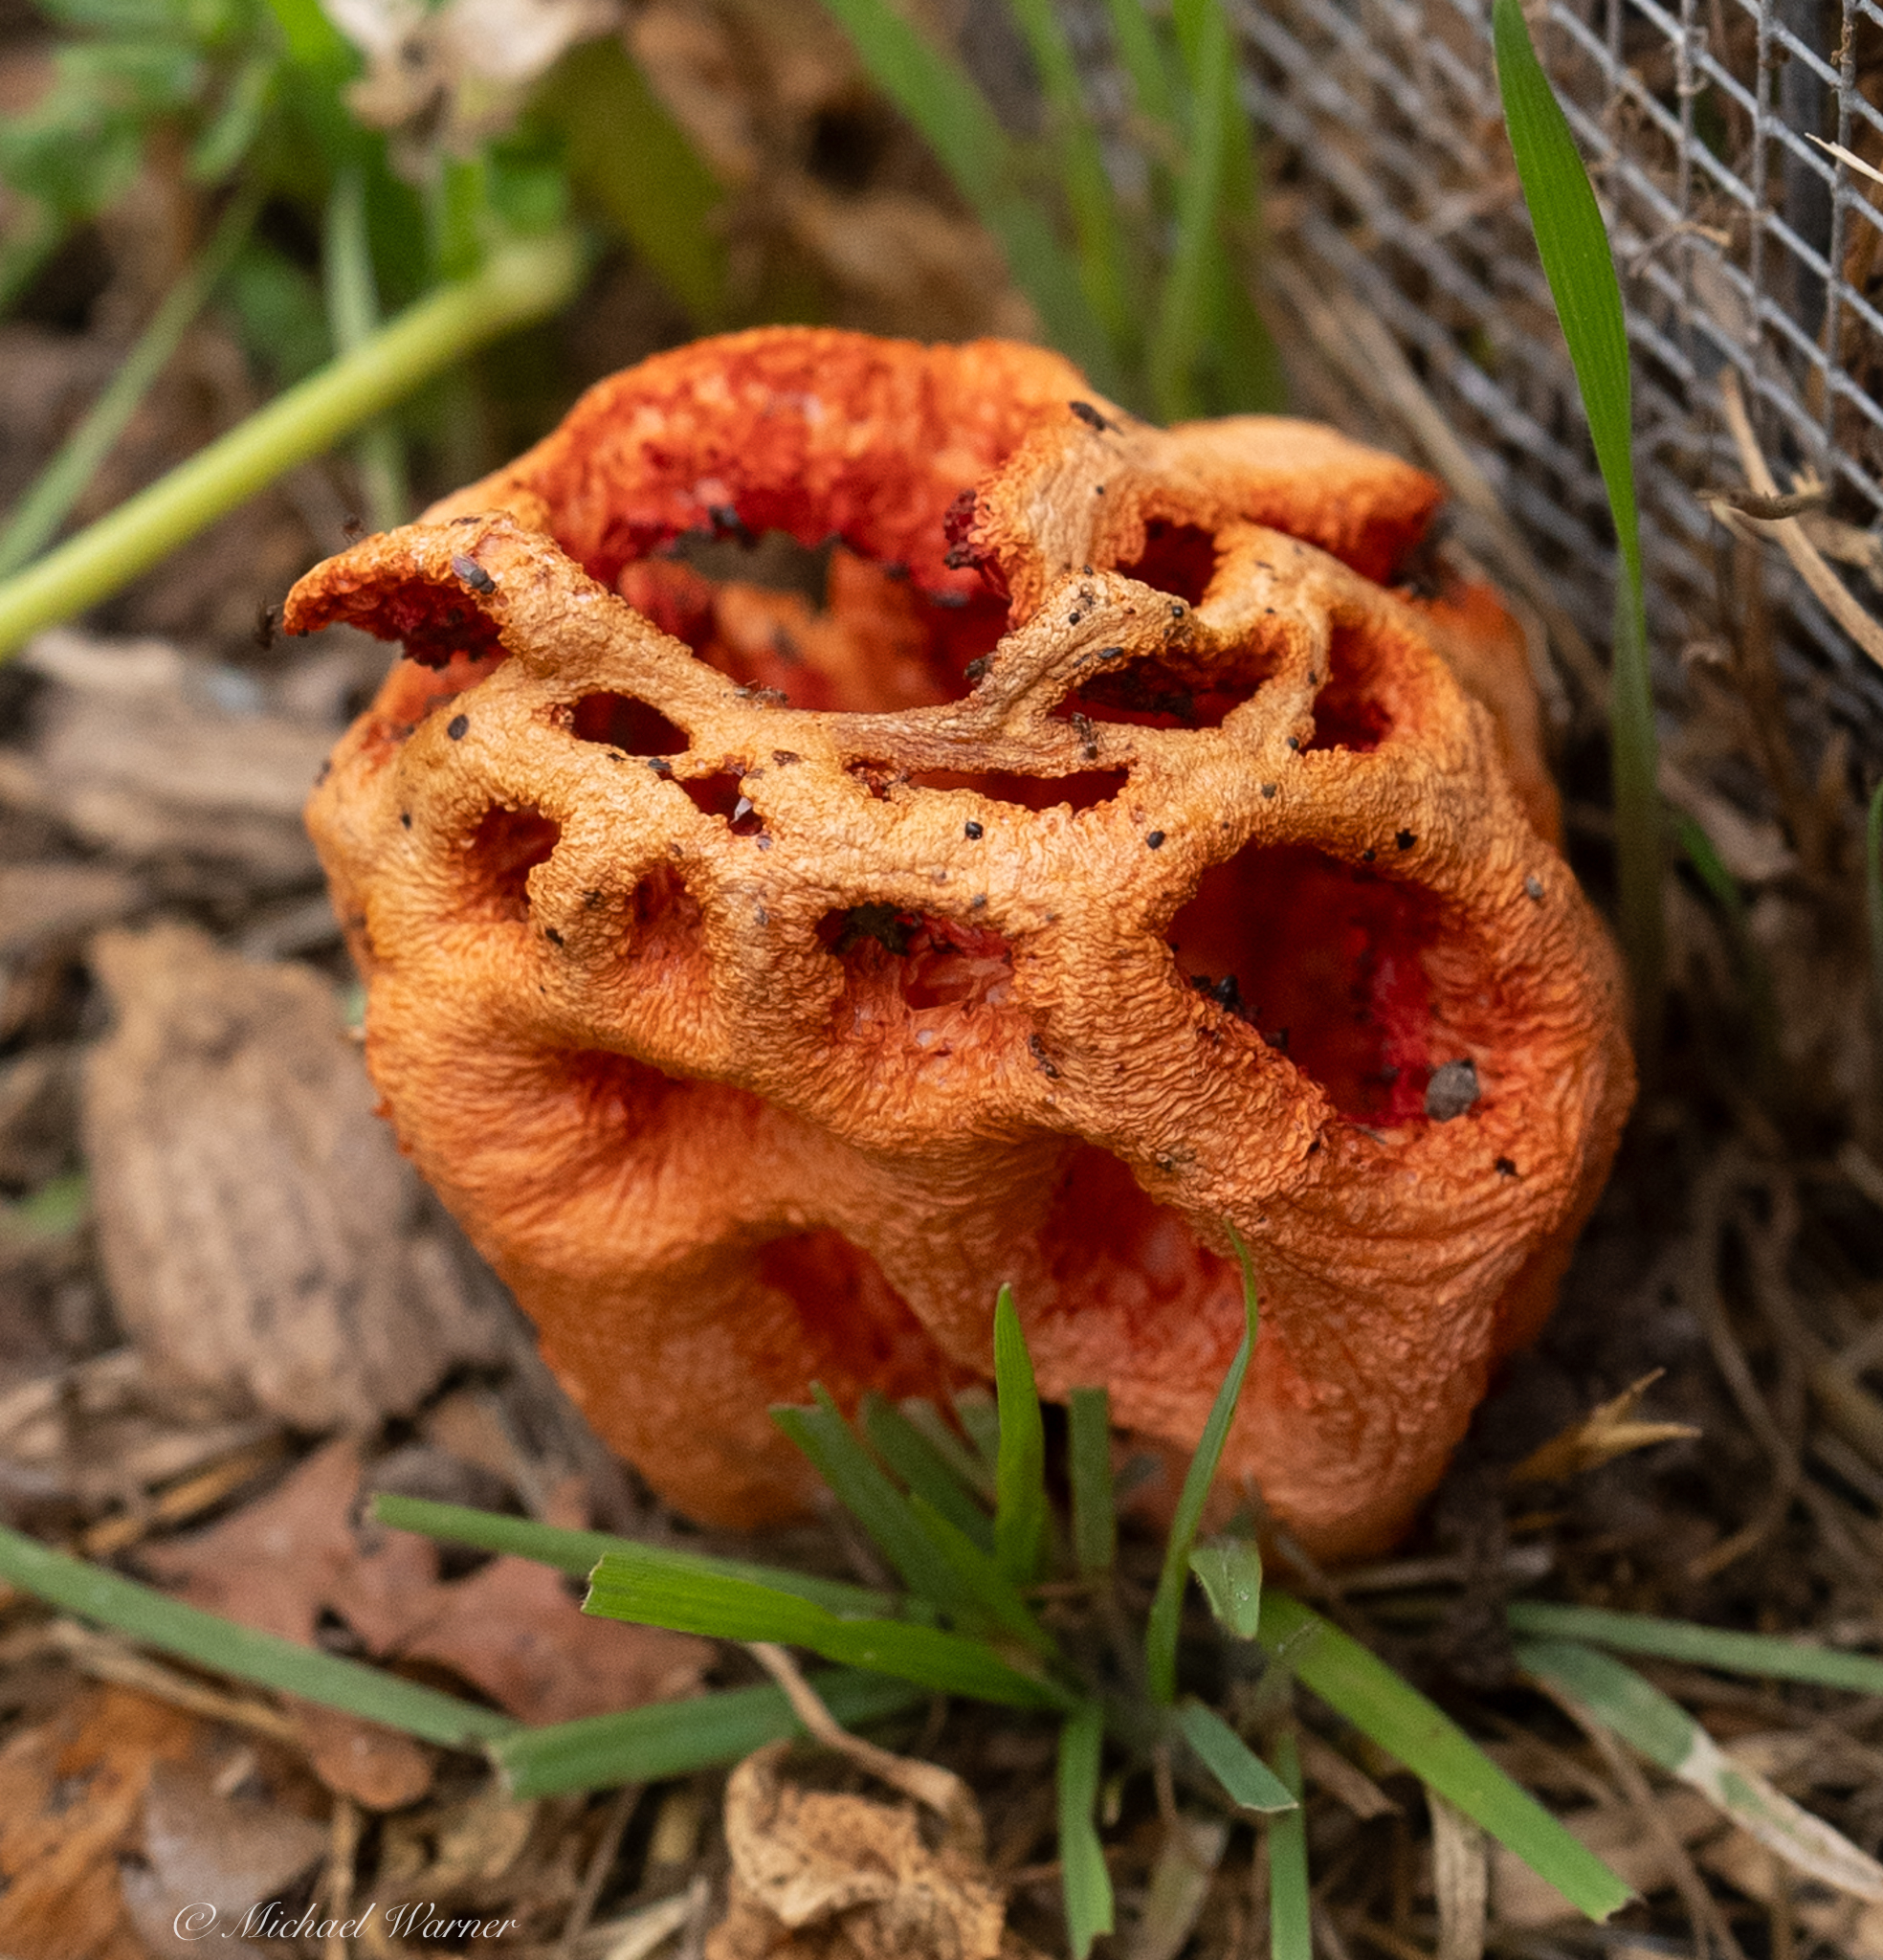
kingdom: Fungi
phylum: Basidiomycota
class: Agaricomycetes
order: Phallales
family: Phallaceae
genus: Clathrus
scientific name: Clathrus ruber
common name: Red cage
